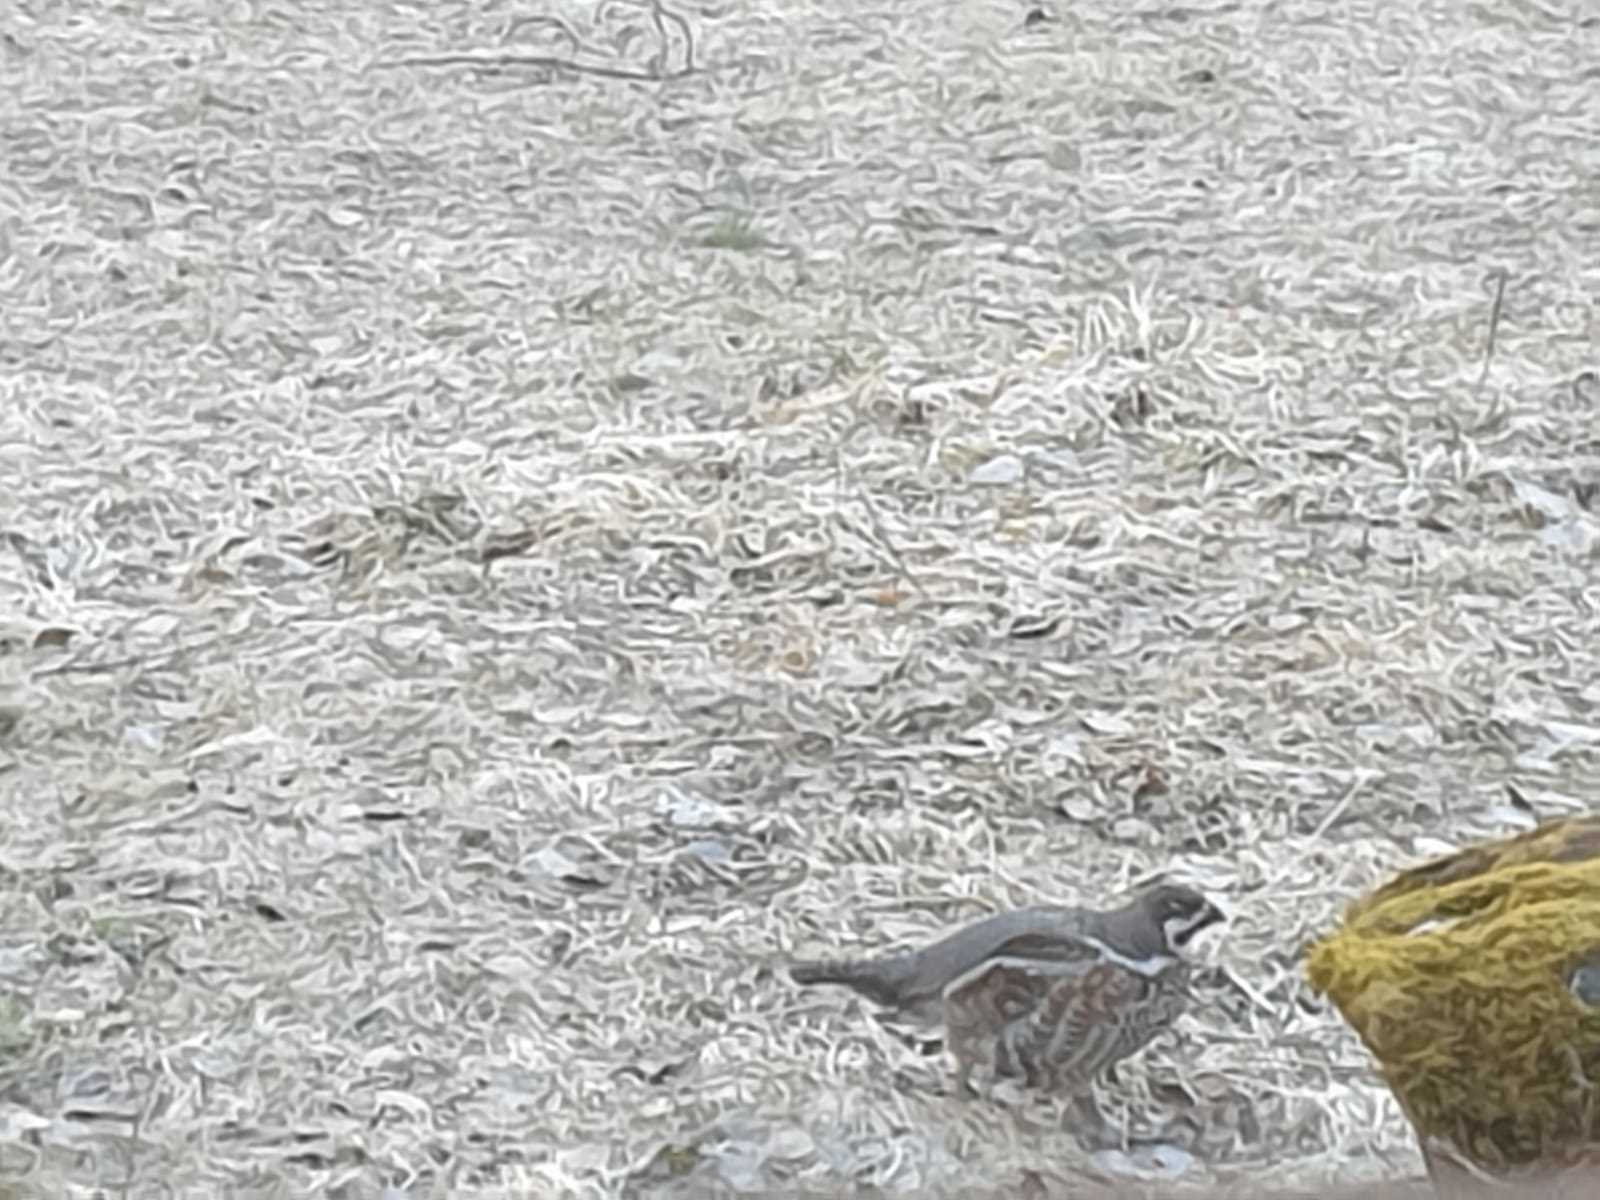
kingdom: Animalia
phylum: Chordata
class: Aves
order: Galliformes
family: Phasianidae
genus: Tetrastes
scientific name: Tetrastes bonasia
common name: Hazel grouse
